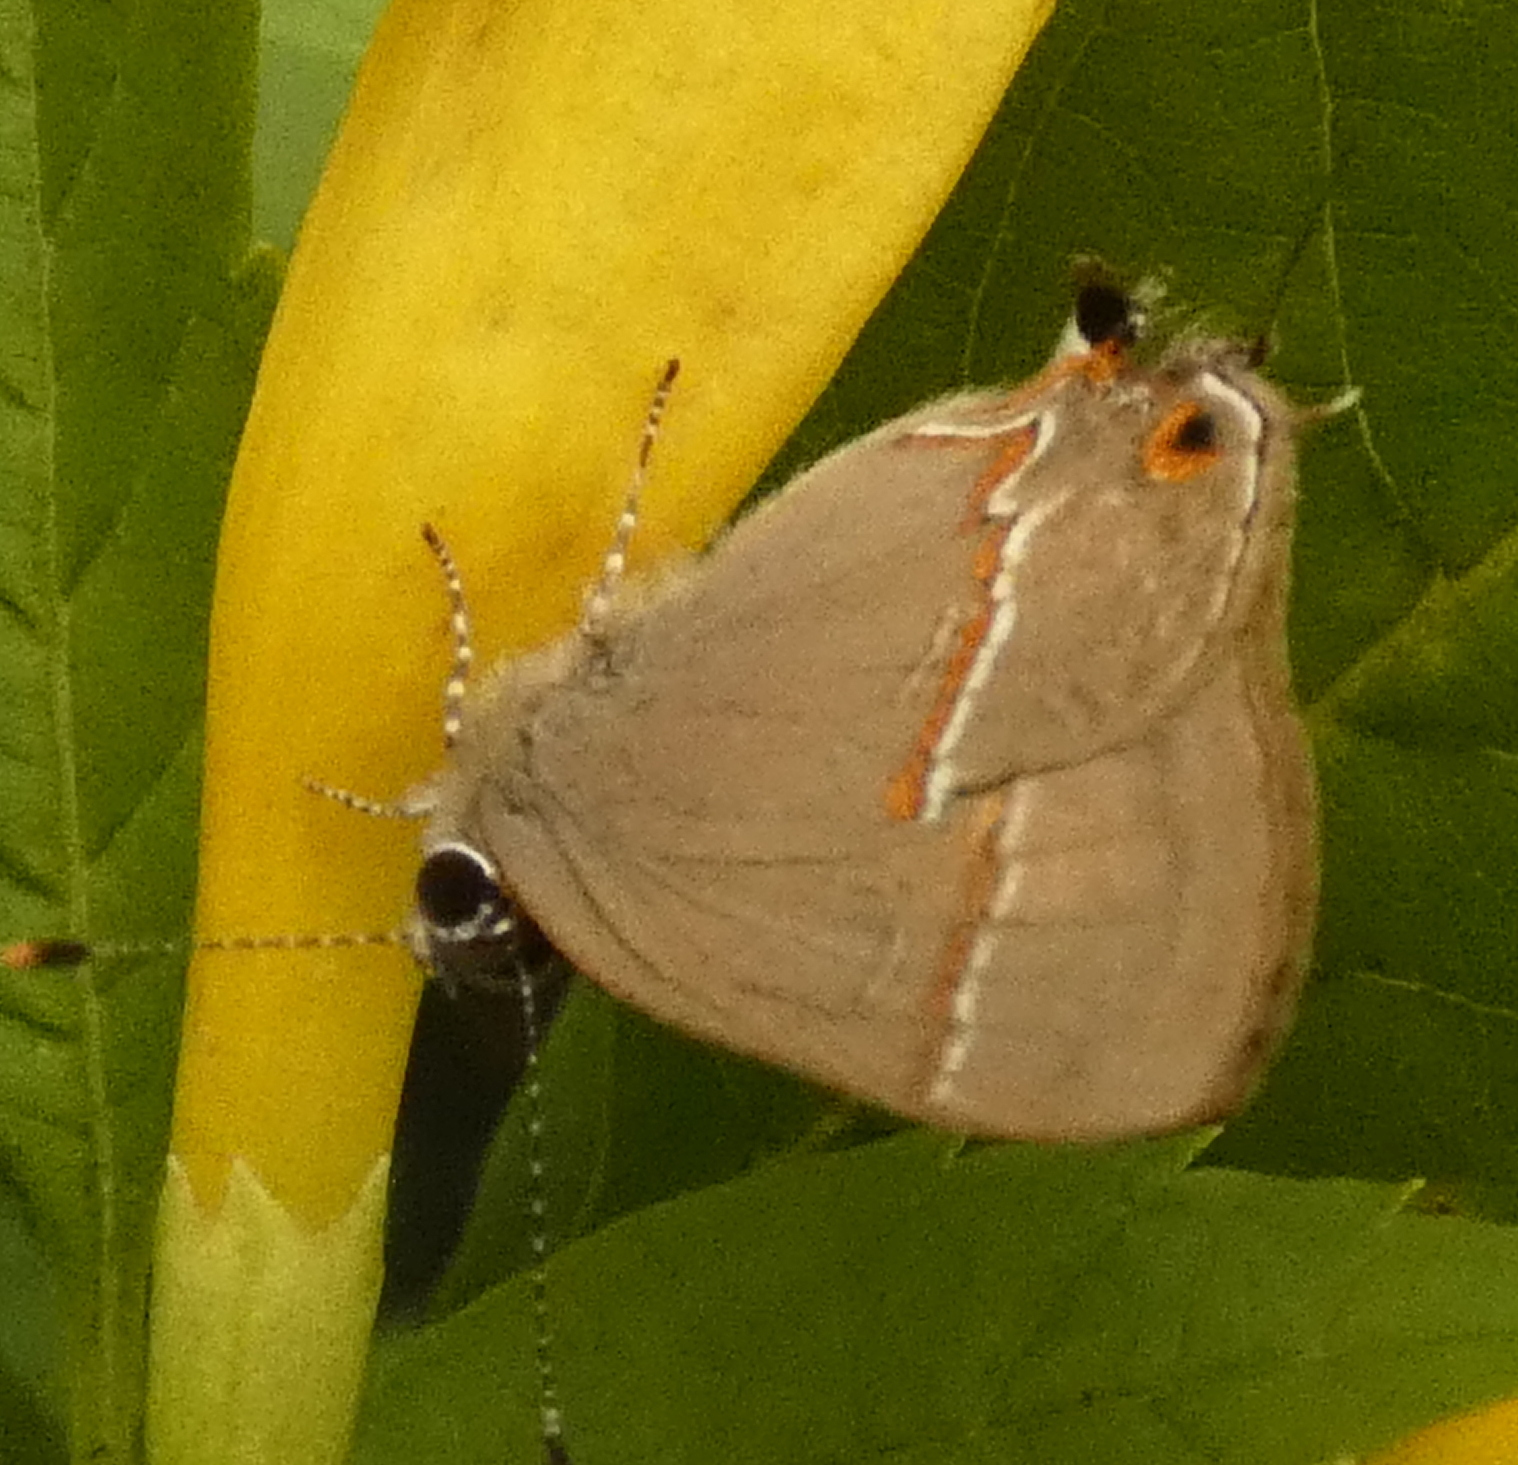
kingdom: Animalia
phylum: Arthropoda
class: Insecta
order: Lepidoptera
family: Lycaenidae
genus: Electrostrymon
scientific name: Electrostrymon endymion
